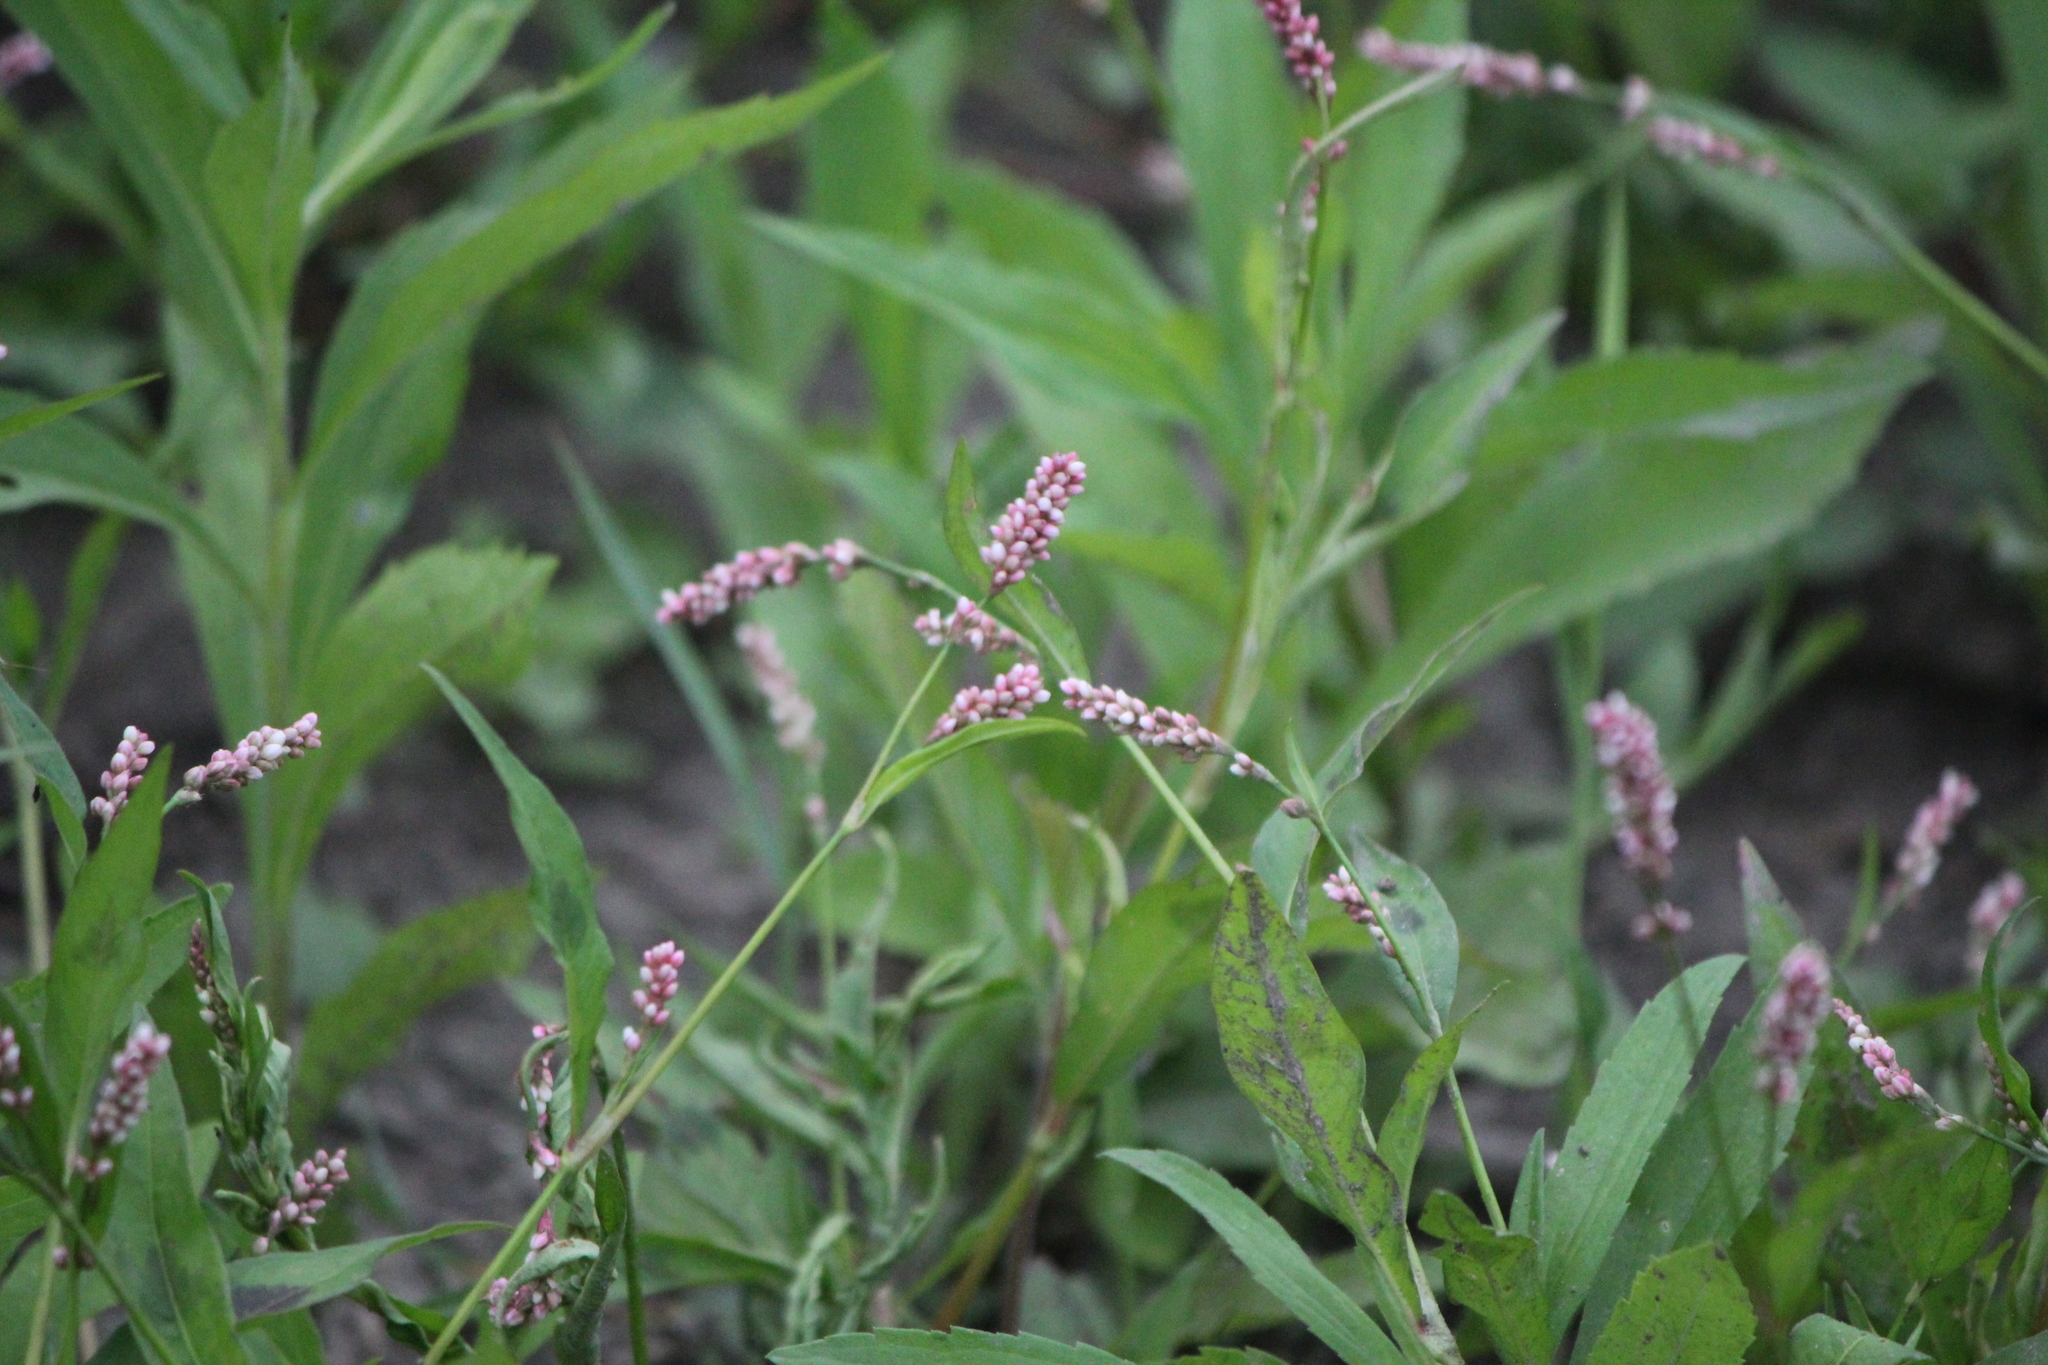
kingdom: Plantae
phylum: Tracheophyta
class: Magnoliopsida
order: Caryophyllales
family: Polygonaceae
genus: Persicaria
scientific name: Persicaria maculosa
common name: Redshank
